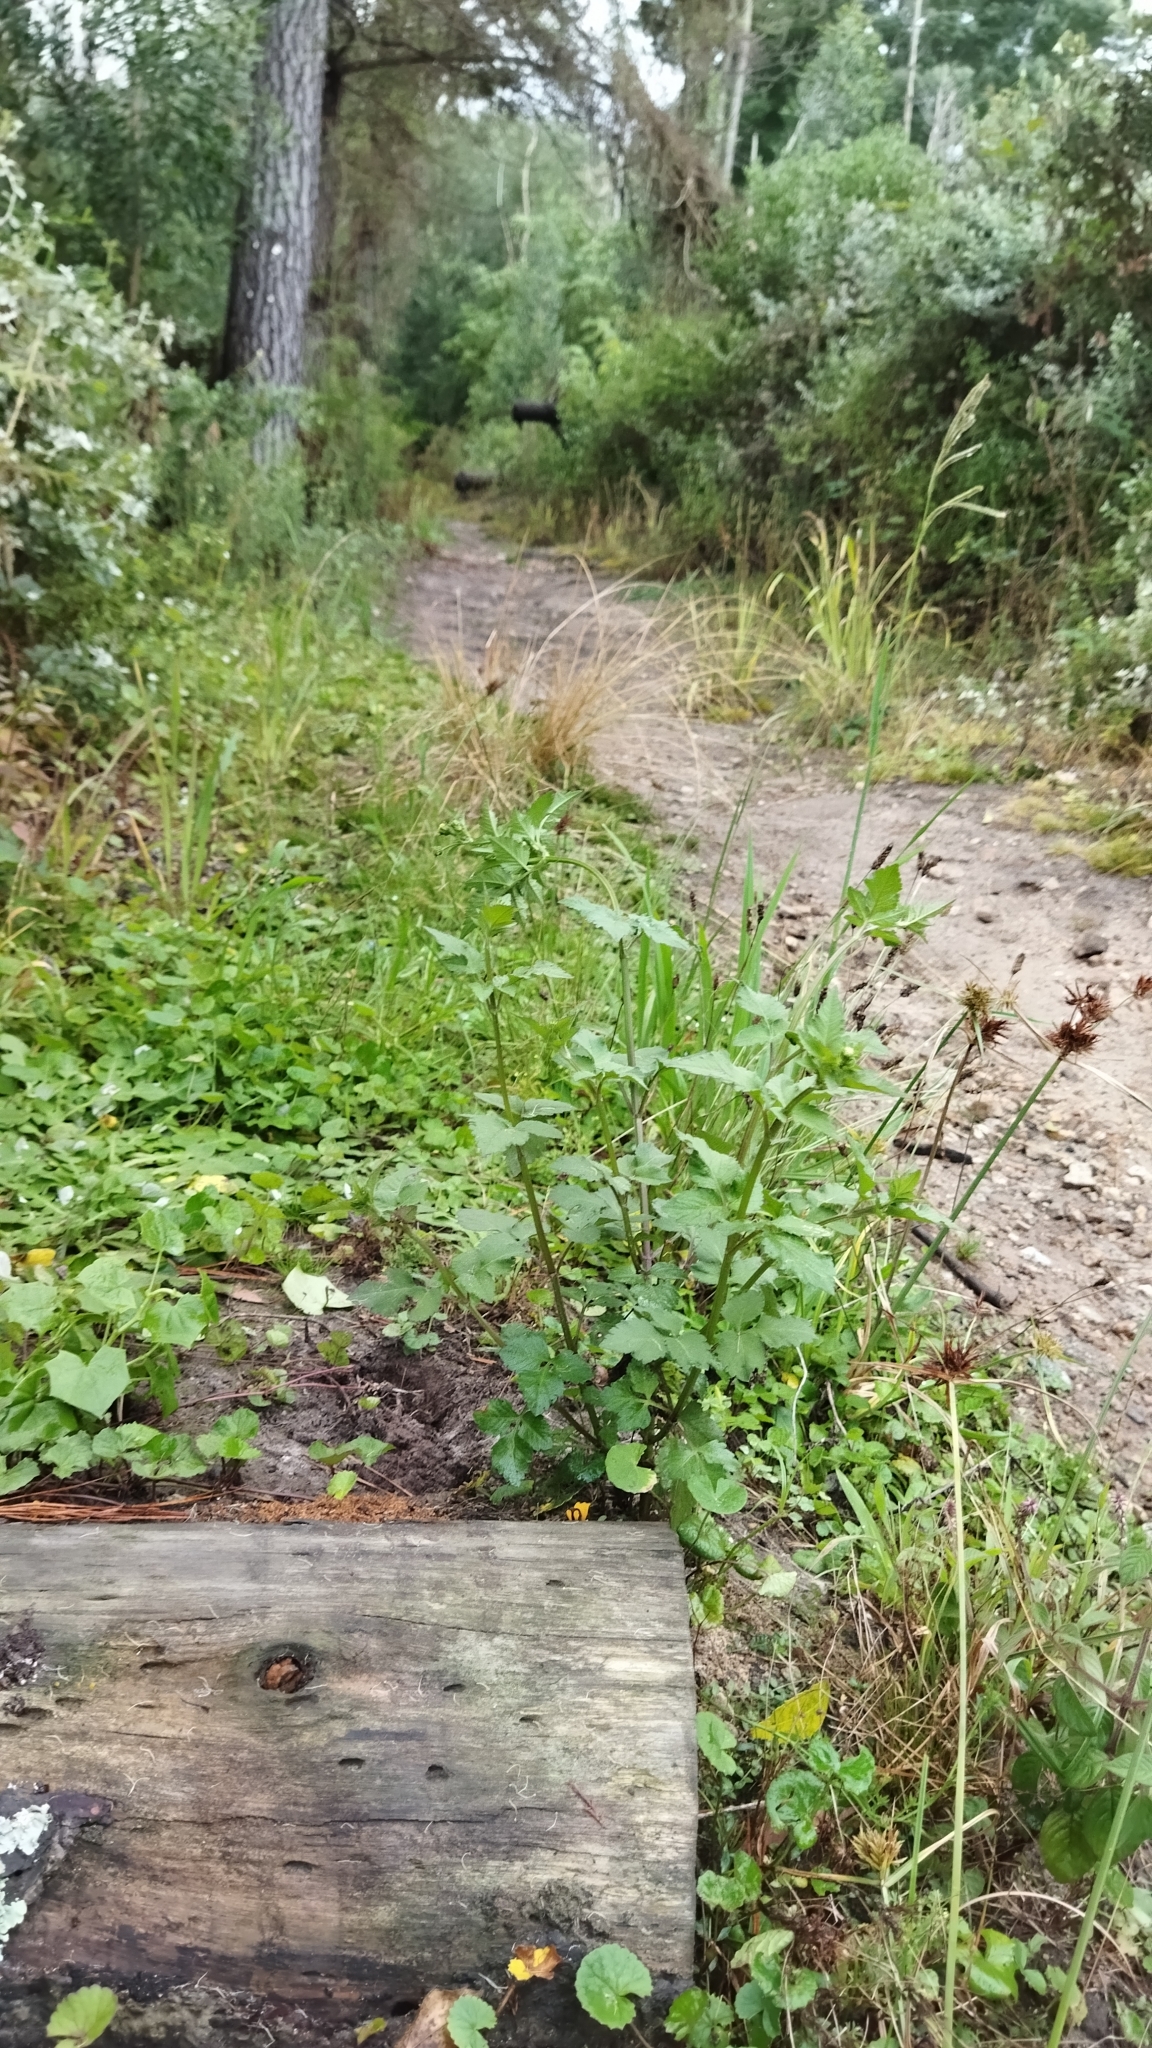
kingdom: Fungi
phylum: Basidiomycota
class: Dacrymycetes
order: Dacrymycetales
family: Dacrymycetaceae
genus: Dacrymyces
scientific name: Dacrymyces spathularius
